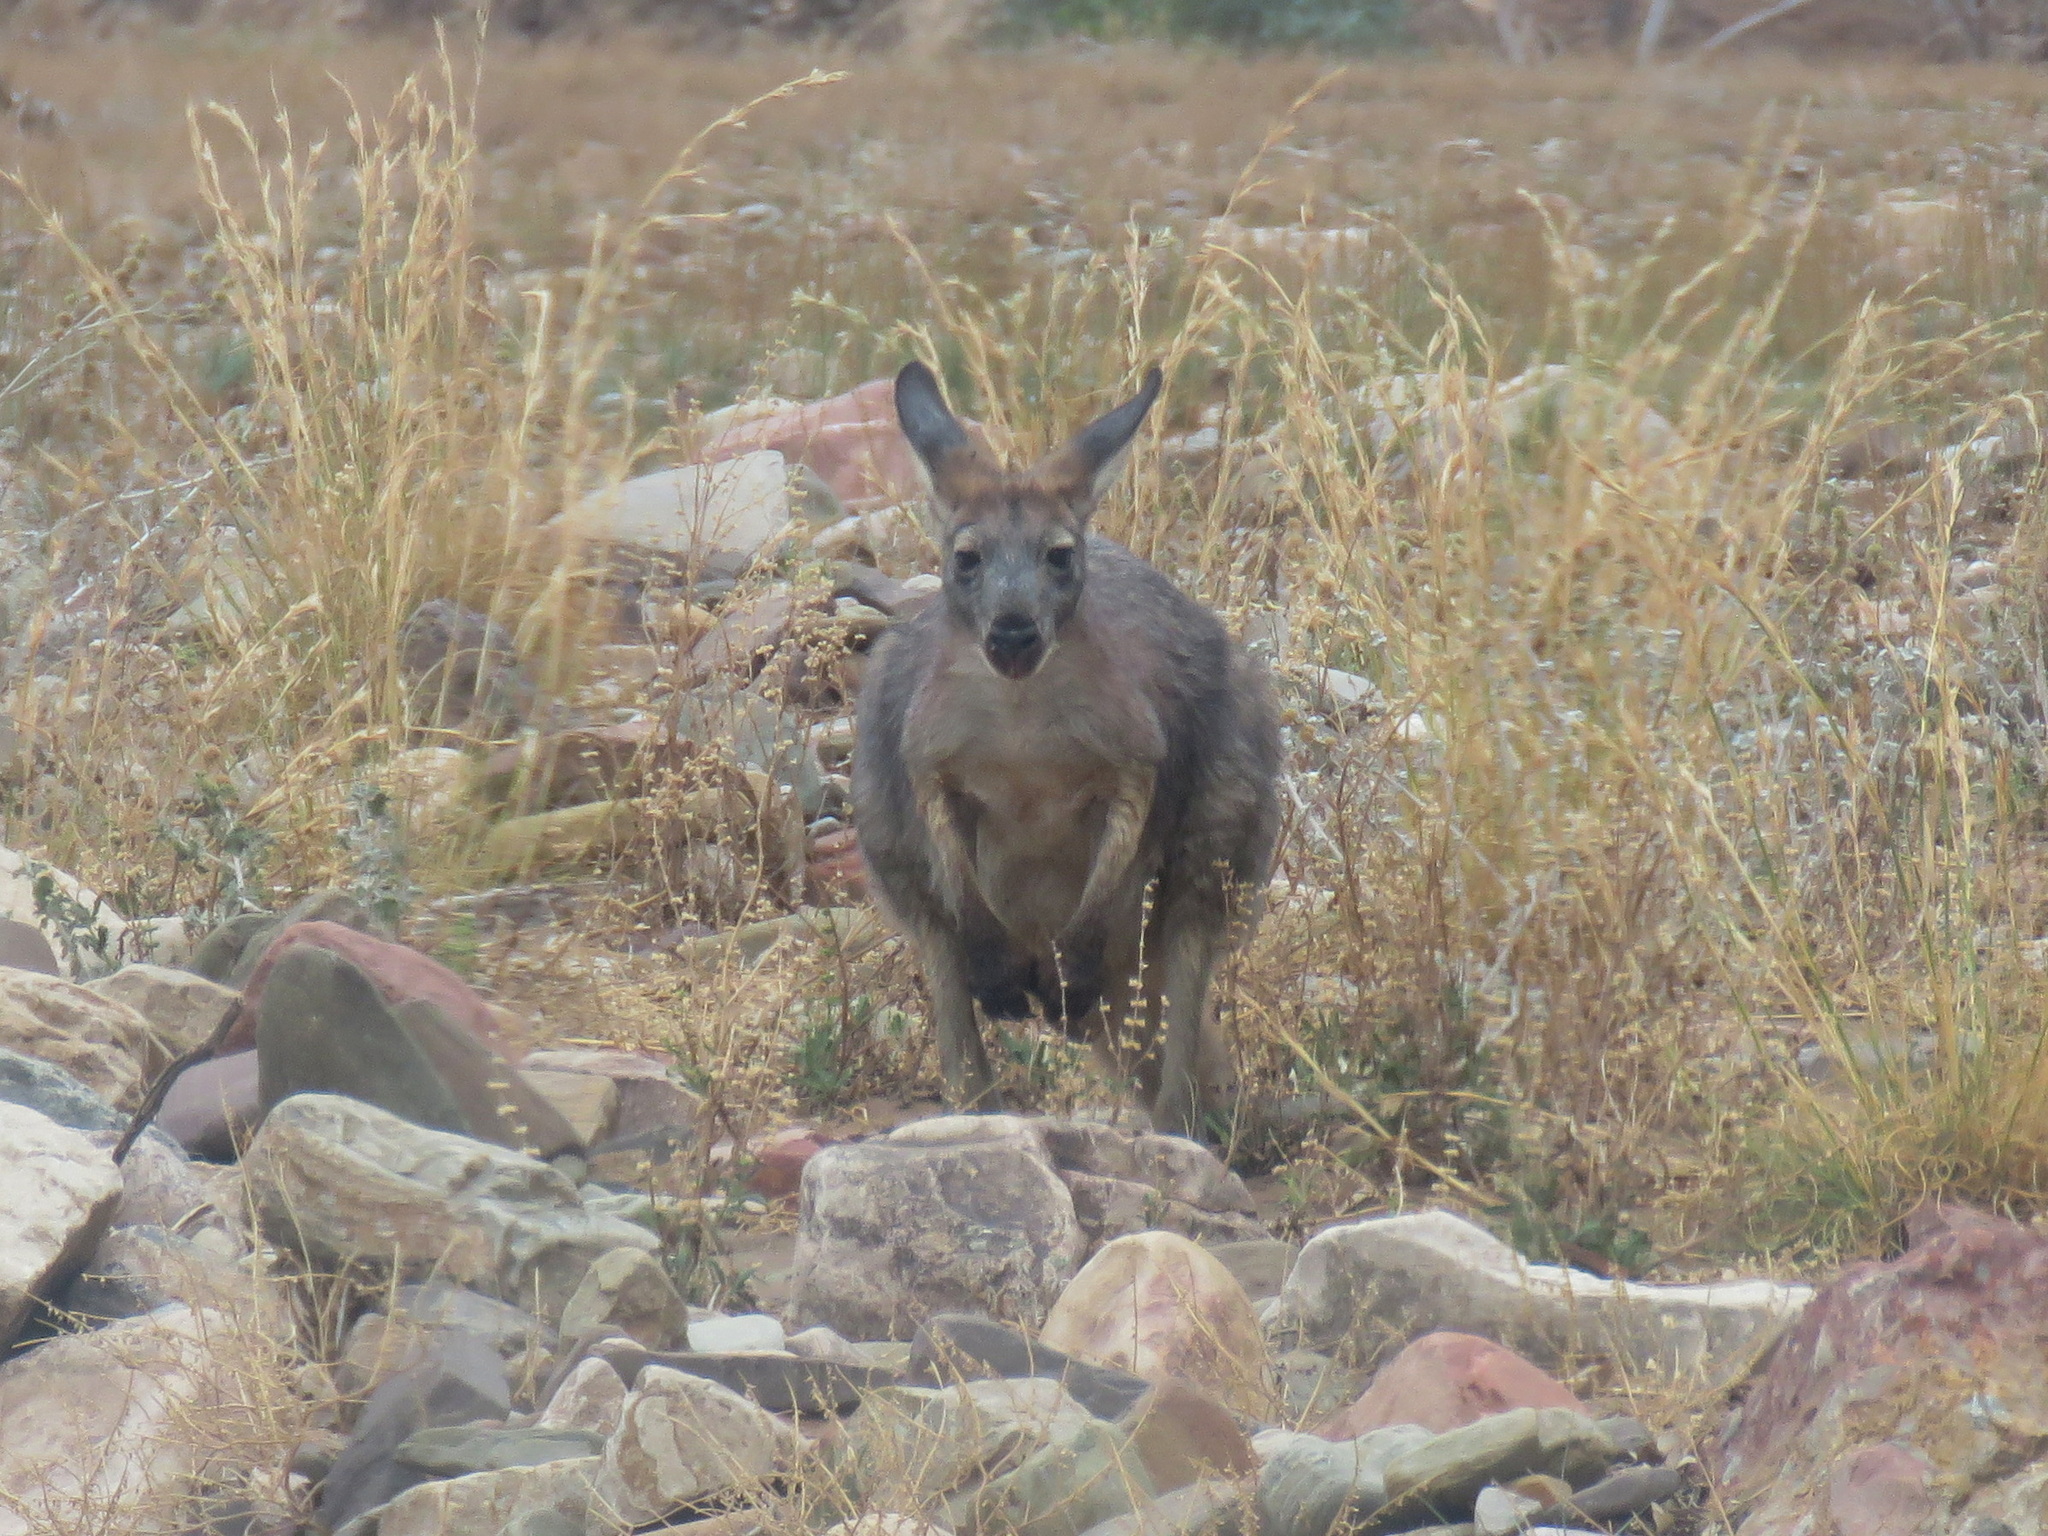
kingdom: Animalia
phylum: Chordata
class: Mammalia
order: Diprotodontia
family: Macropodidae
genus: Macropus
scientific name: Macropus robustus
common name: Eastern wallaroo
